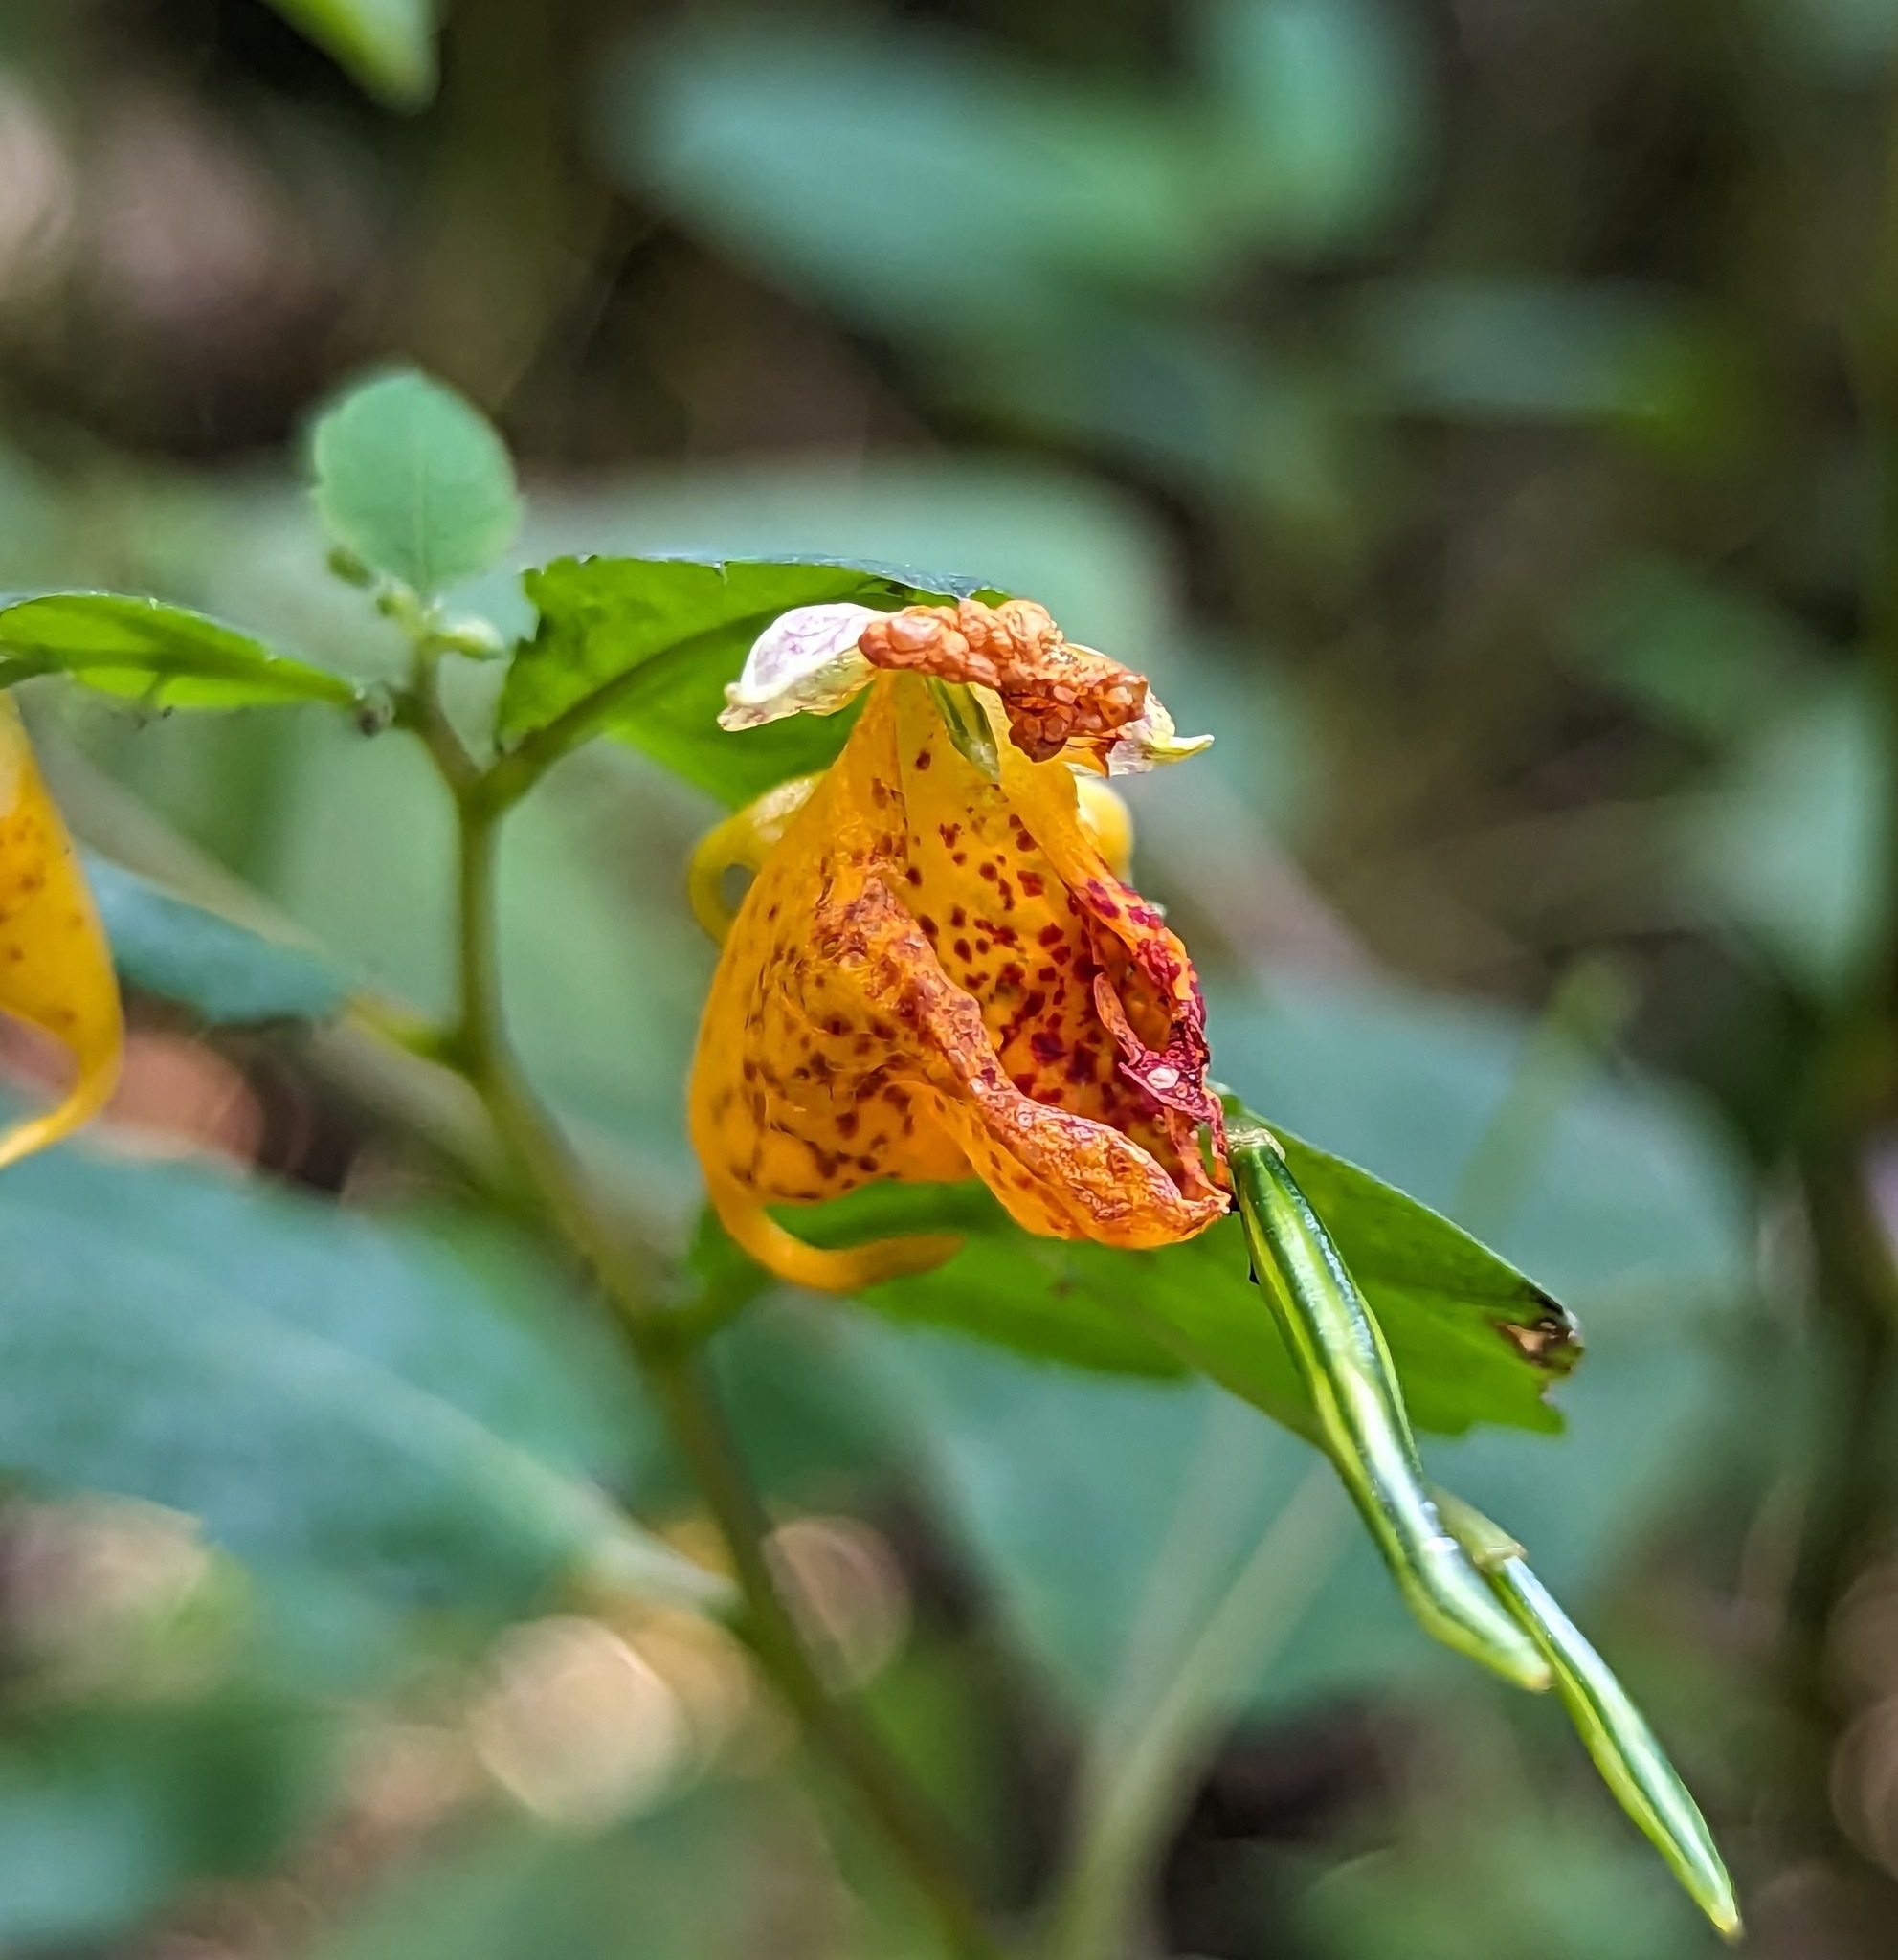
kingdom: Plantae
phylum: Tracheophyta
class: Magnoliopsida
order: Ericales
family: Balsaminaceae
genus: Impatiens
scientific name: Impatiens capensis
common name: Orange balsam
